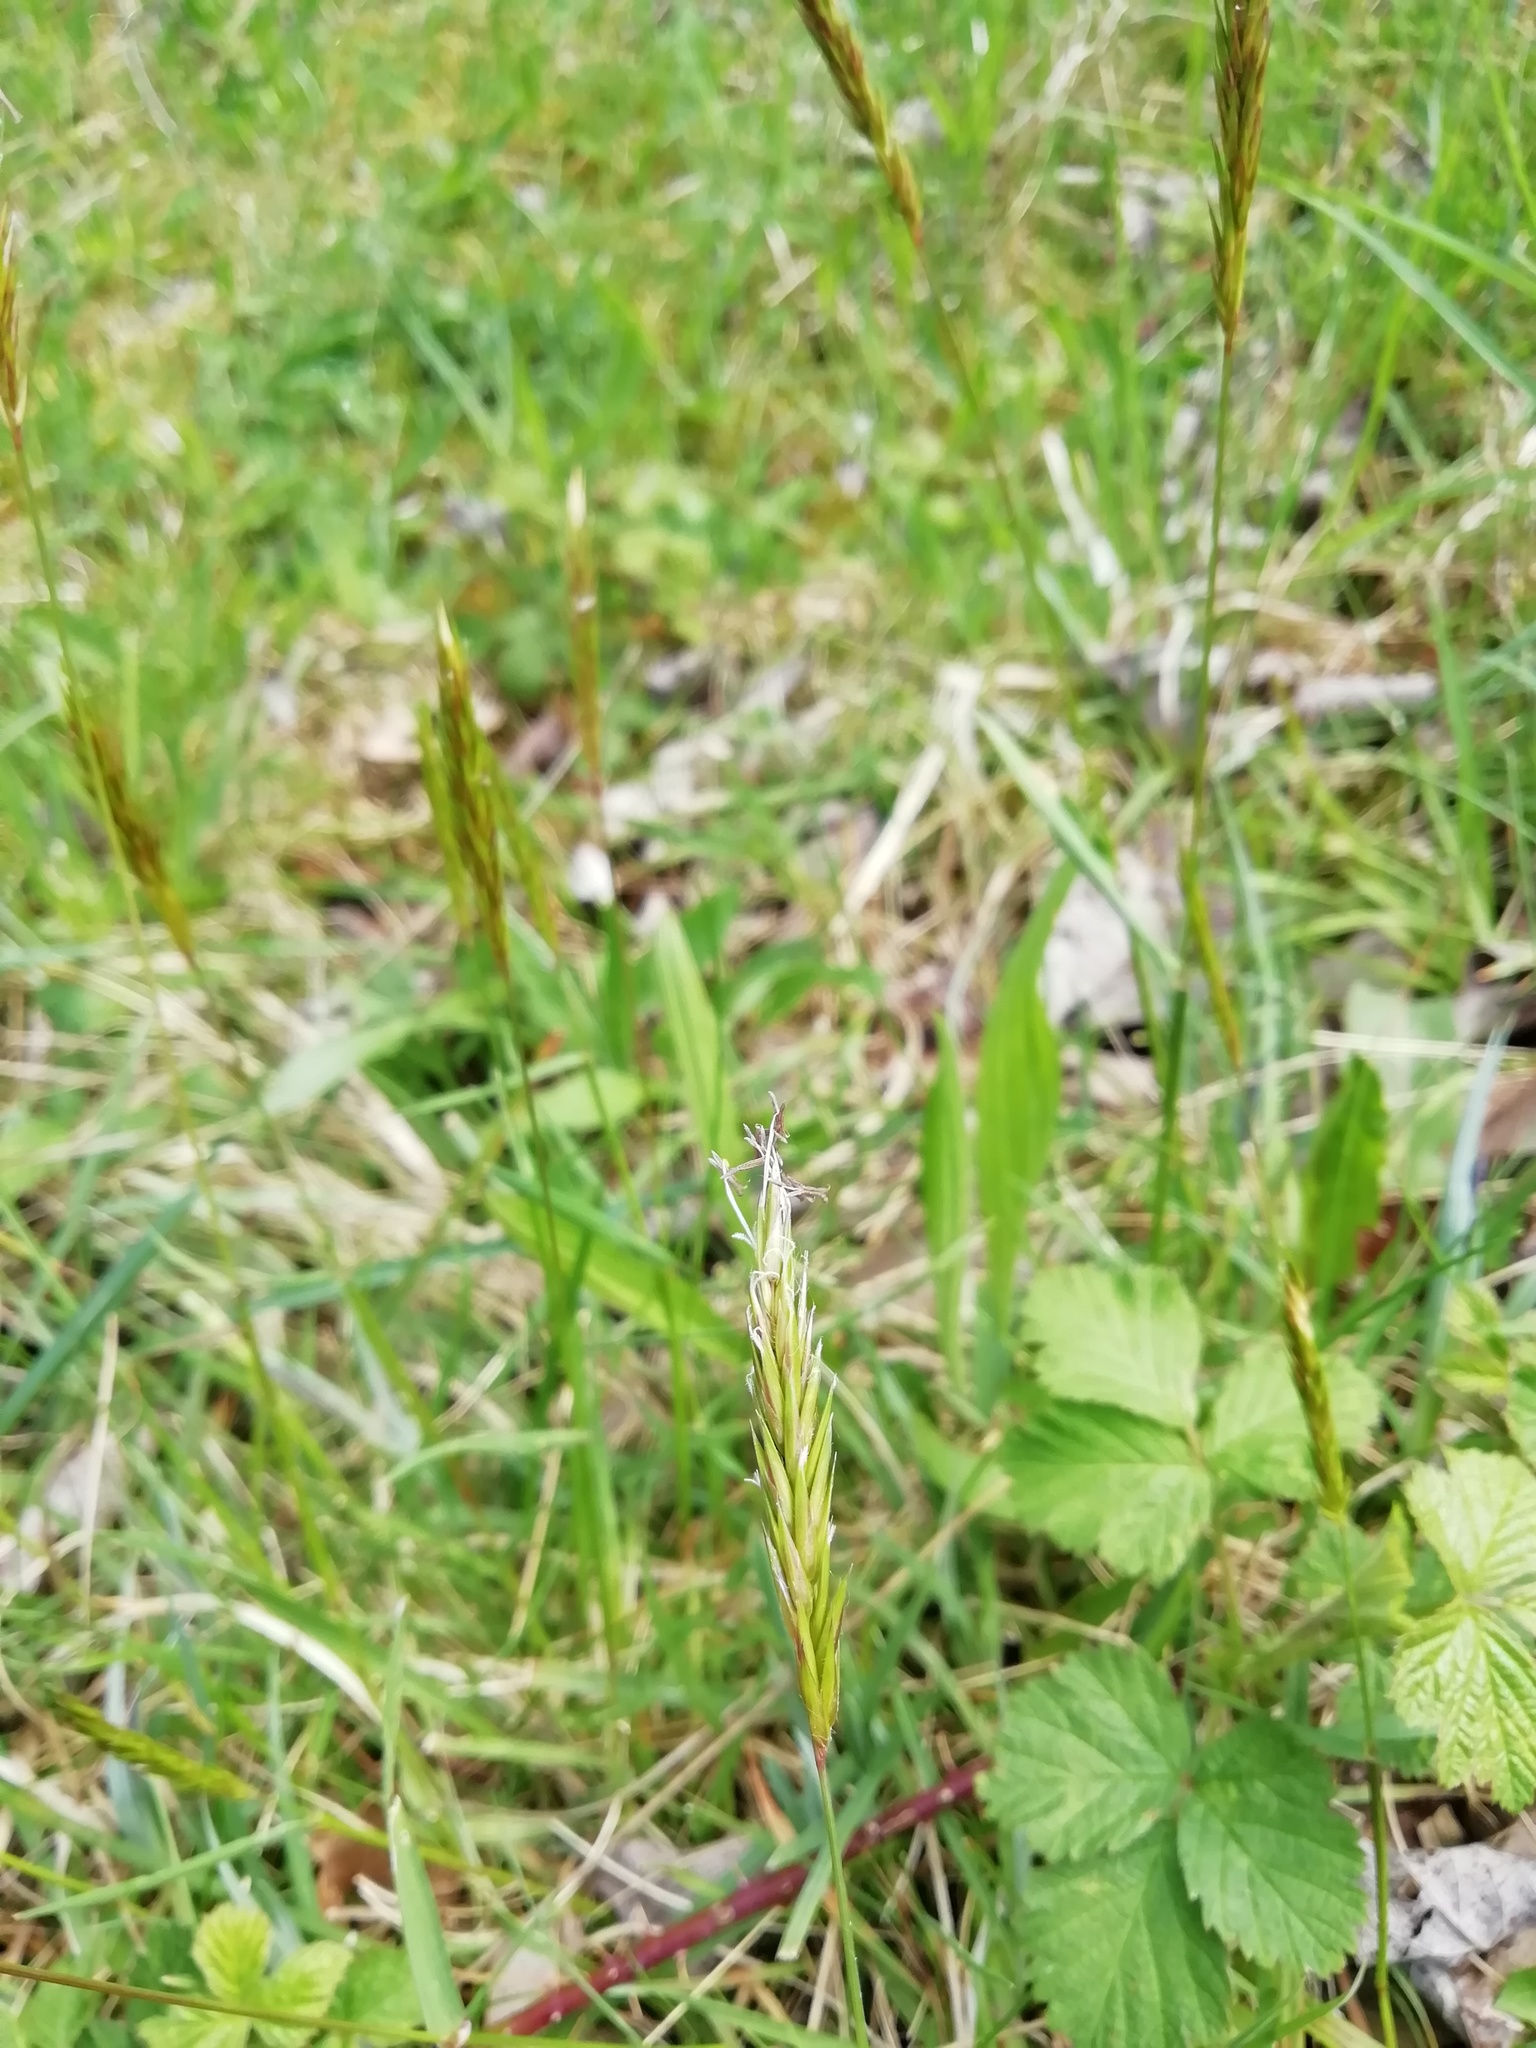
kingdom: Plantae
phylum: Tracheophyta
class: Liliopsida
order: Poales
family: Poaceae
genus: Anthoxanthum
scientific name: Anthoxanthum odoratum
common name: Sweet vernalgrass
